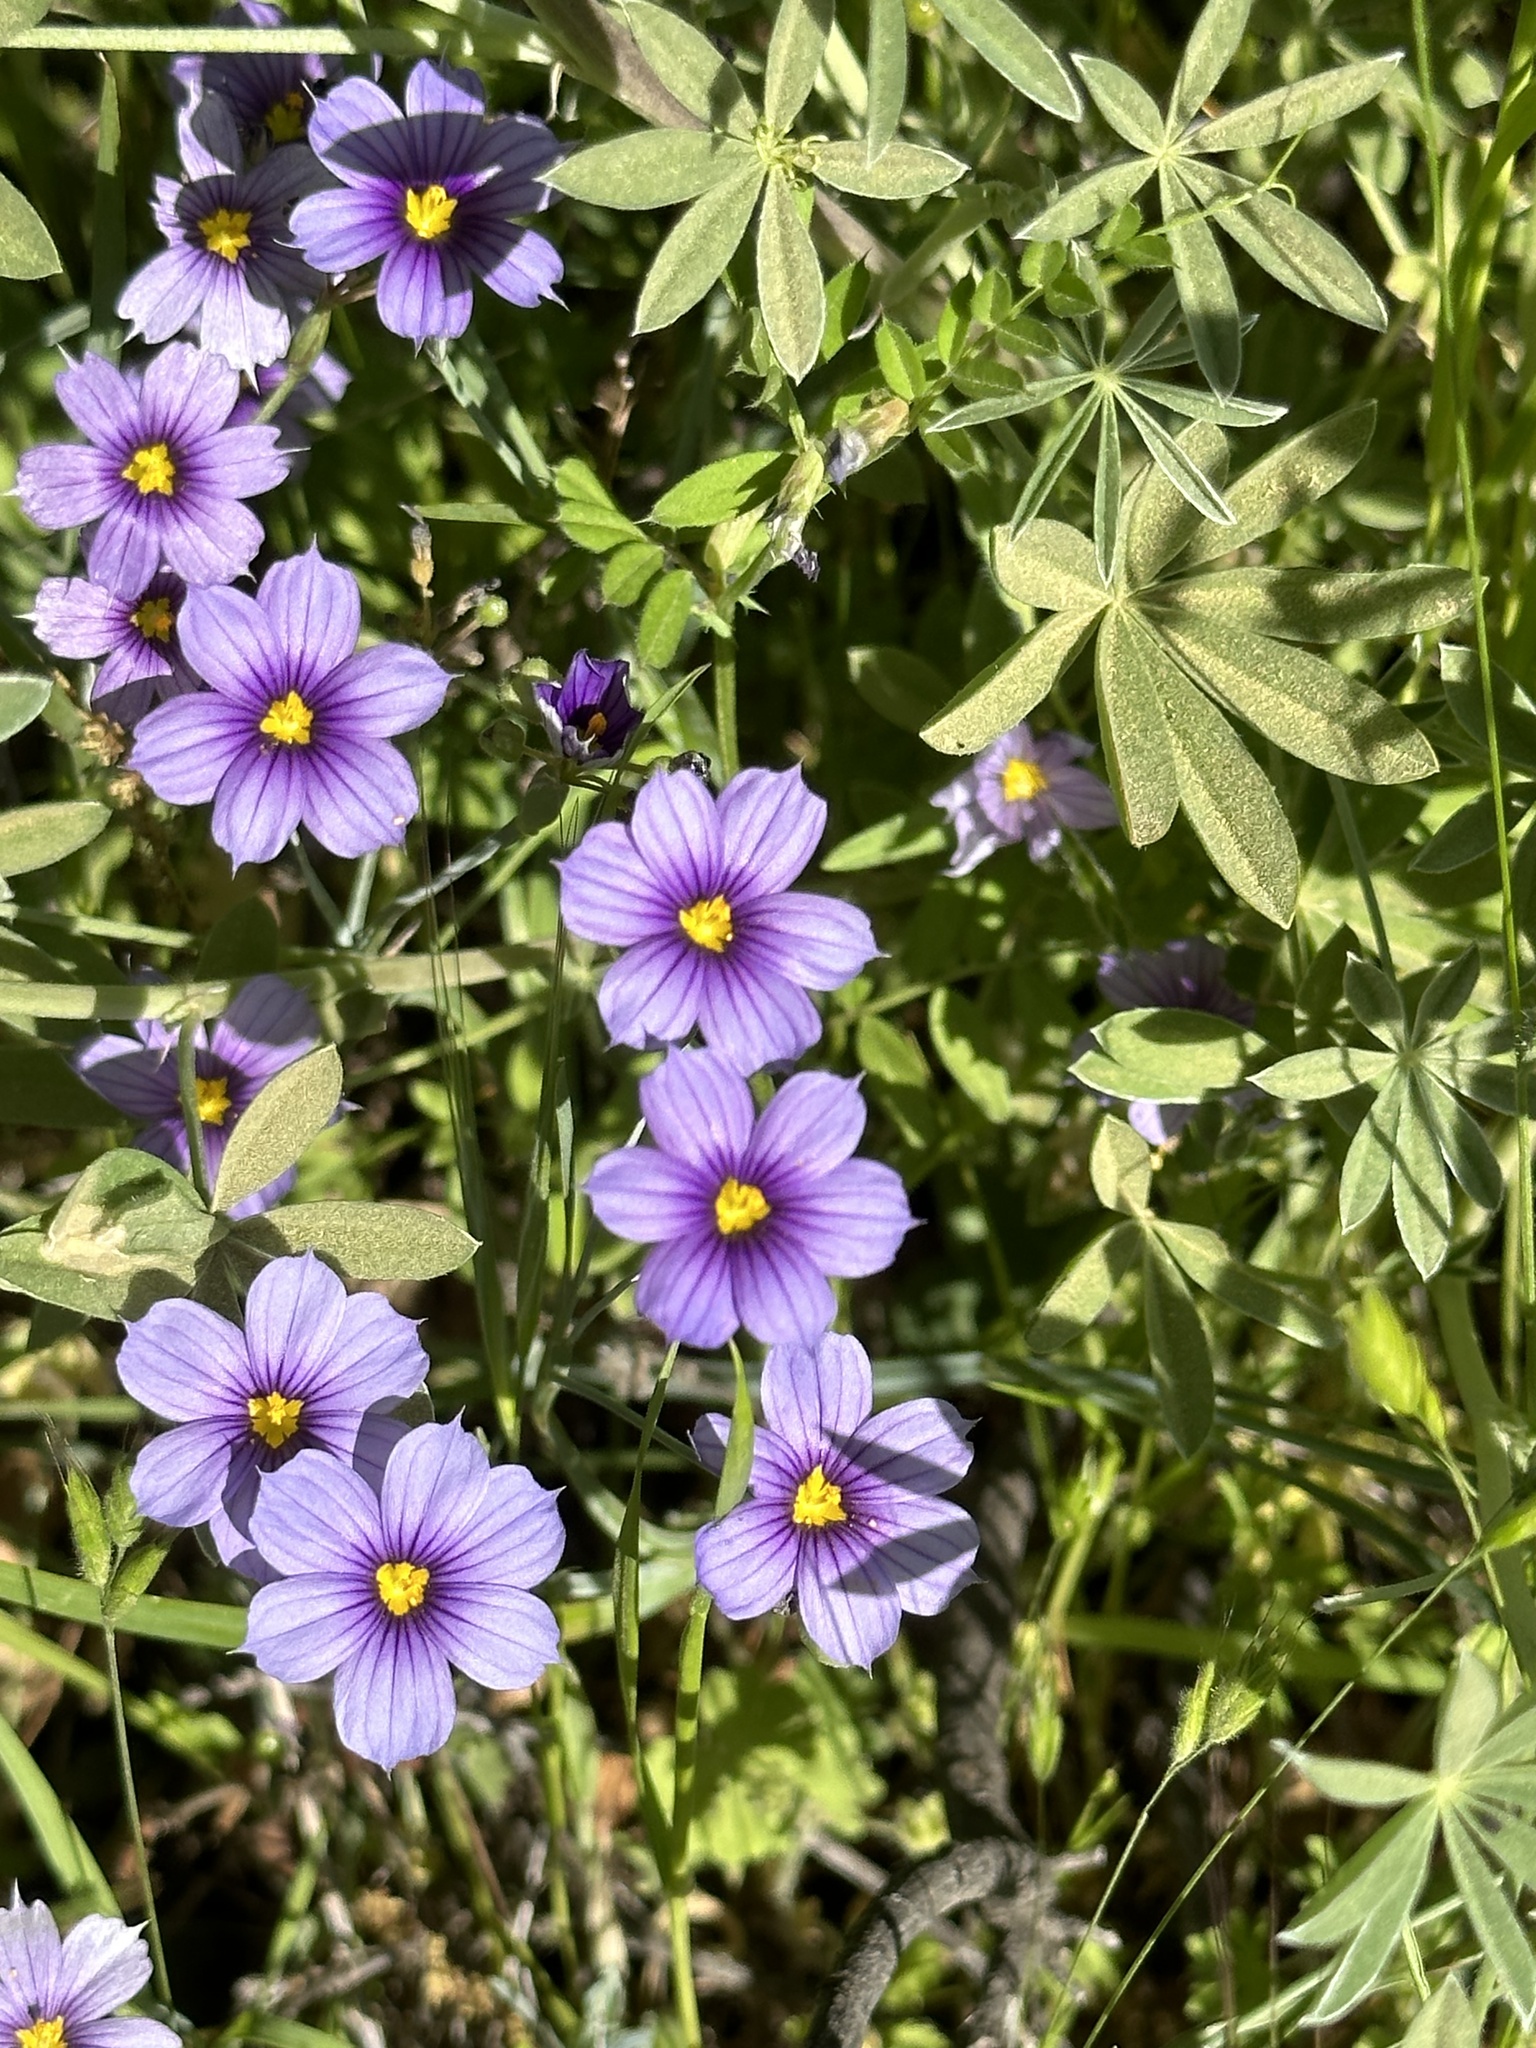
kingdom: Plantae
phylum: Tracheophyta
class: Liliopsida
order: Asparagales
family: Iridaceae
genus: Sisyrinchium
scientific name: Sisyrinchium bellum
